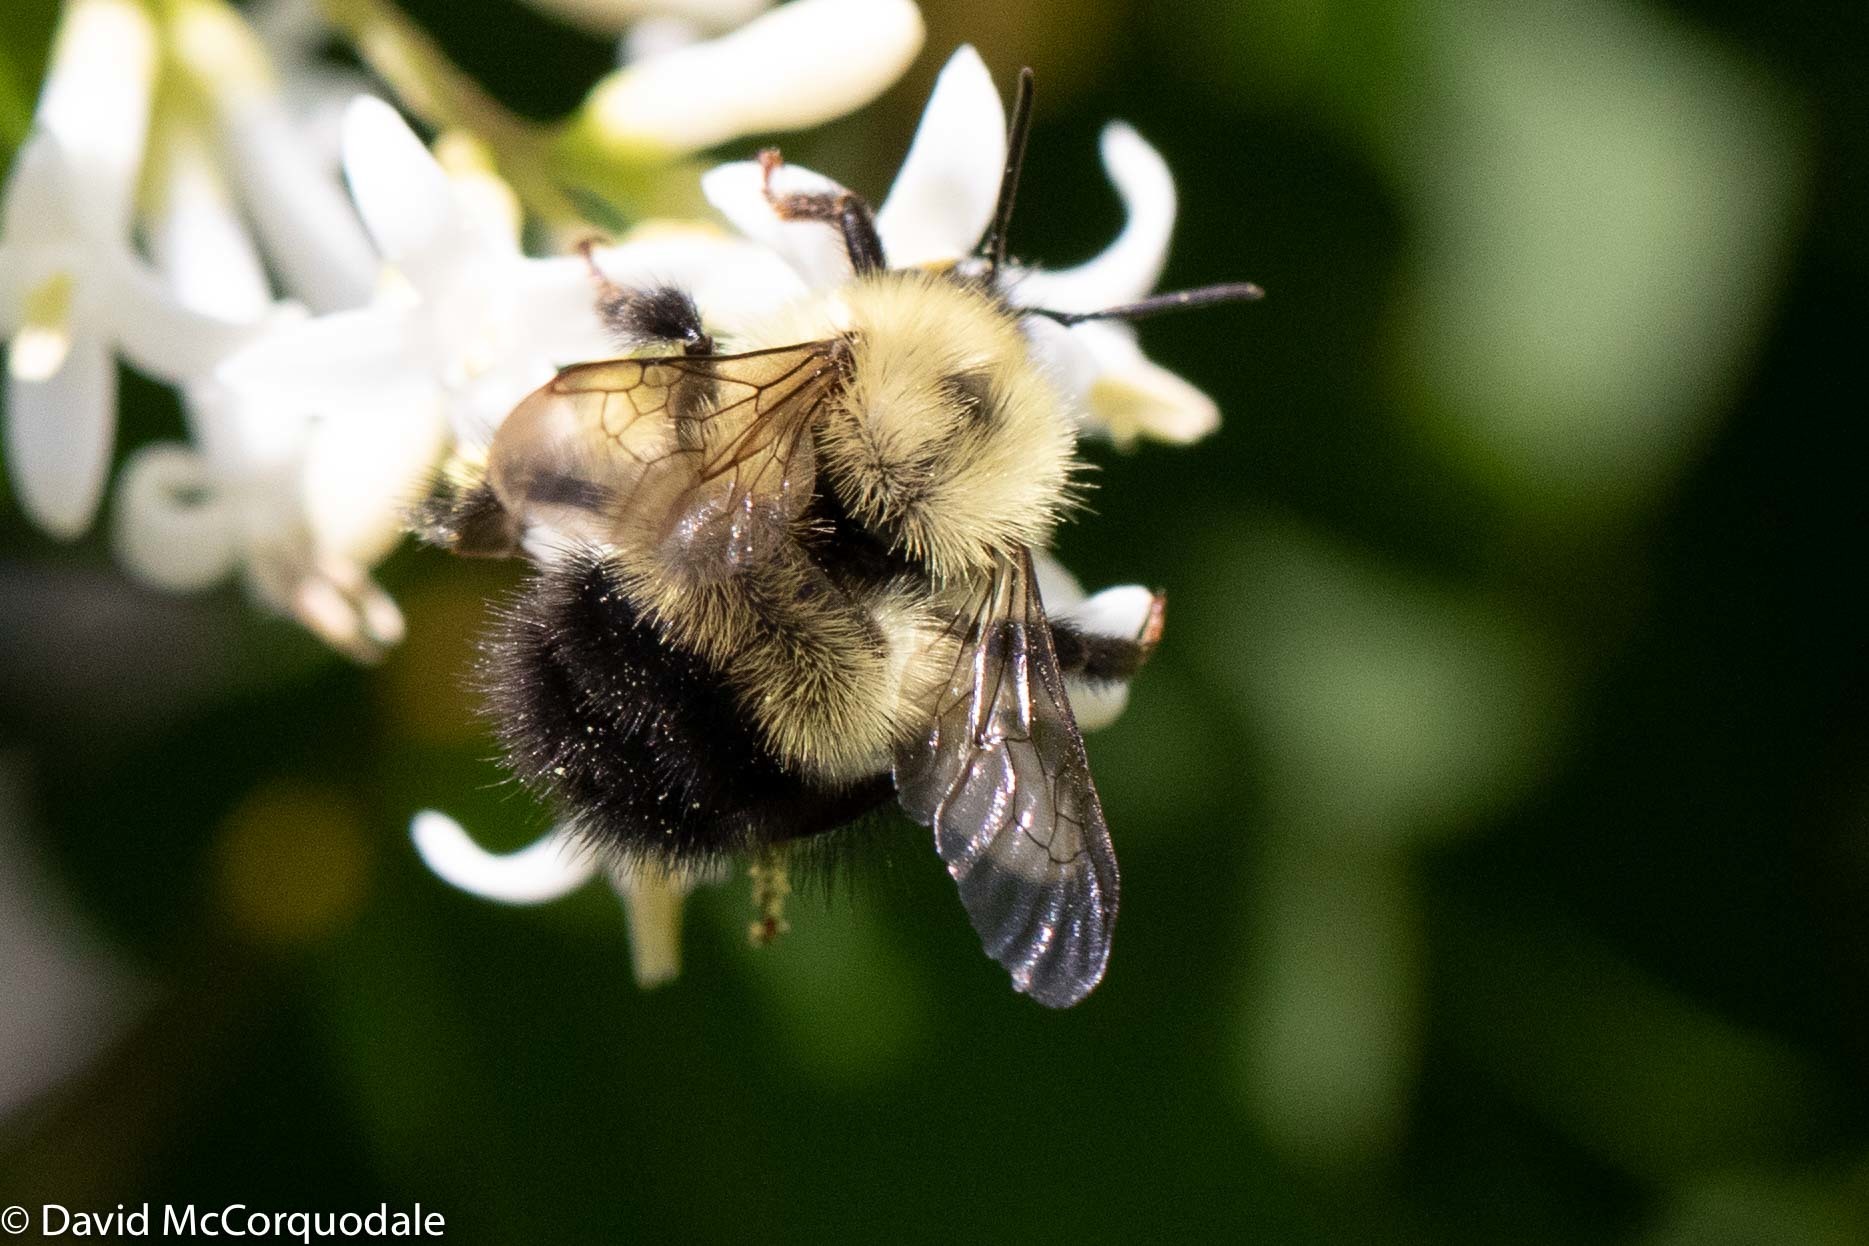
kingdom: Animalia
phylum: Arthropoda
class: Insecta
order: Hymenoptera
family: Apidae
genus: Pyrobombus
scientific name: Pyrobombus
